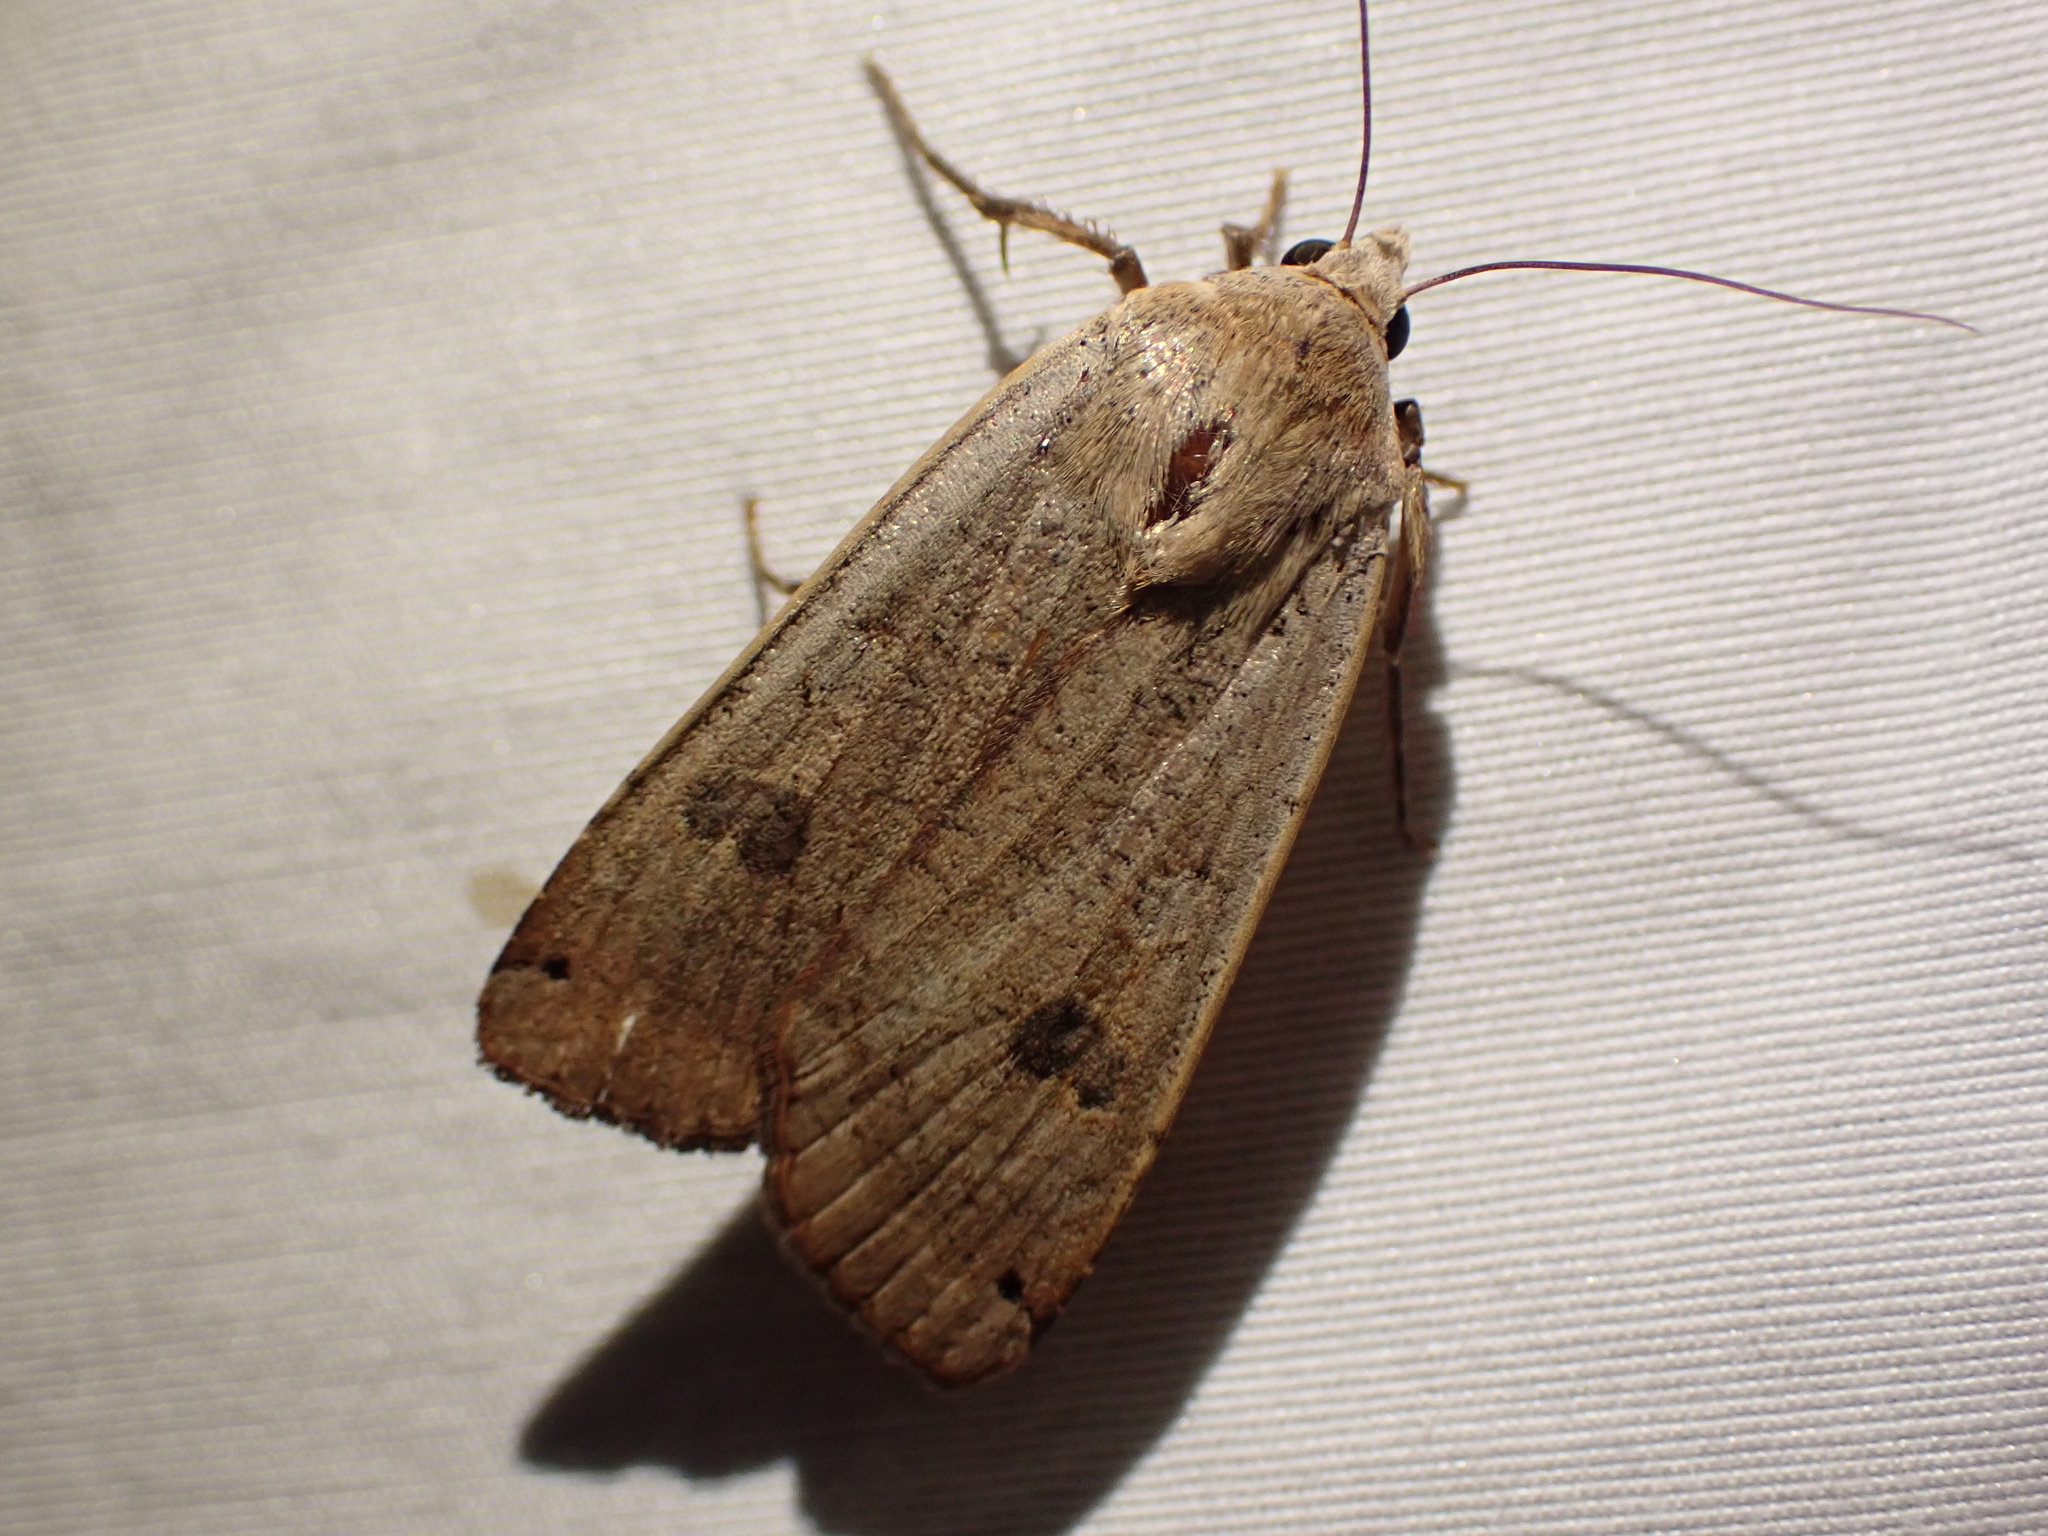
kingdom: Animalia
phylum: Arthropoda
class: Insecta
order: Lepidoptera
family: Noctuidae
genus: Noctua
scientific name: Noctua pronuba
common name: Large yellow underwing
